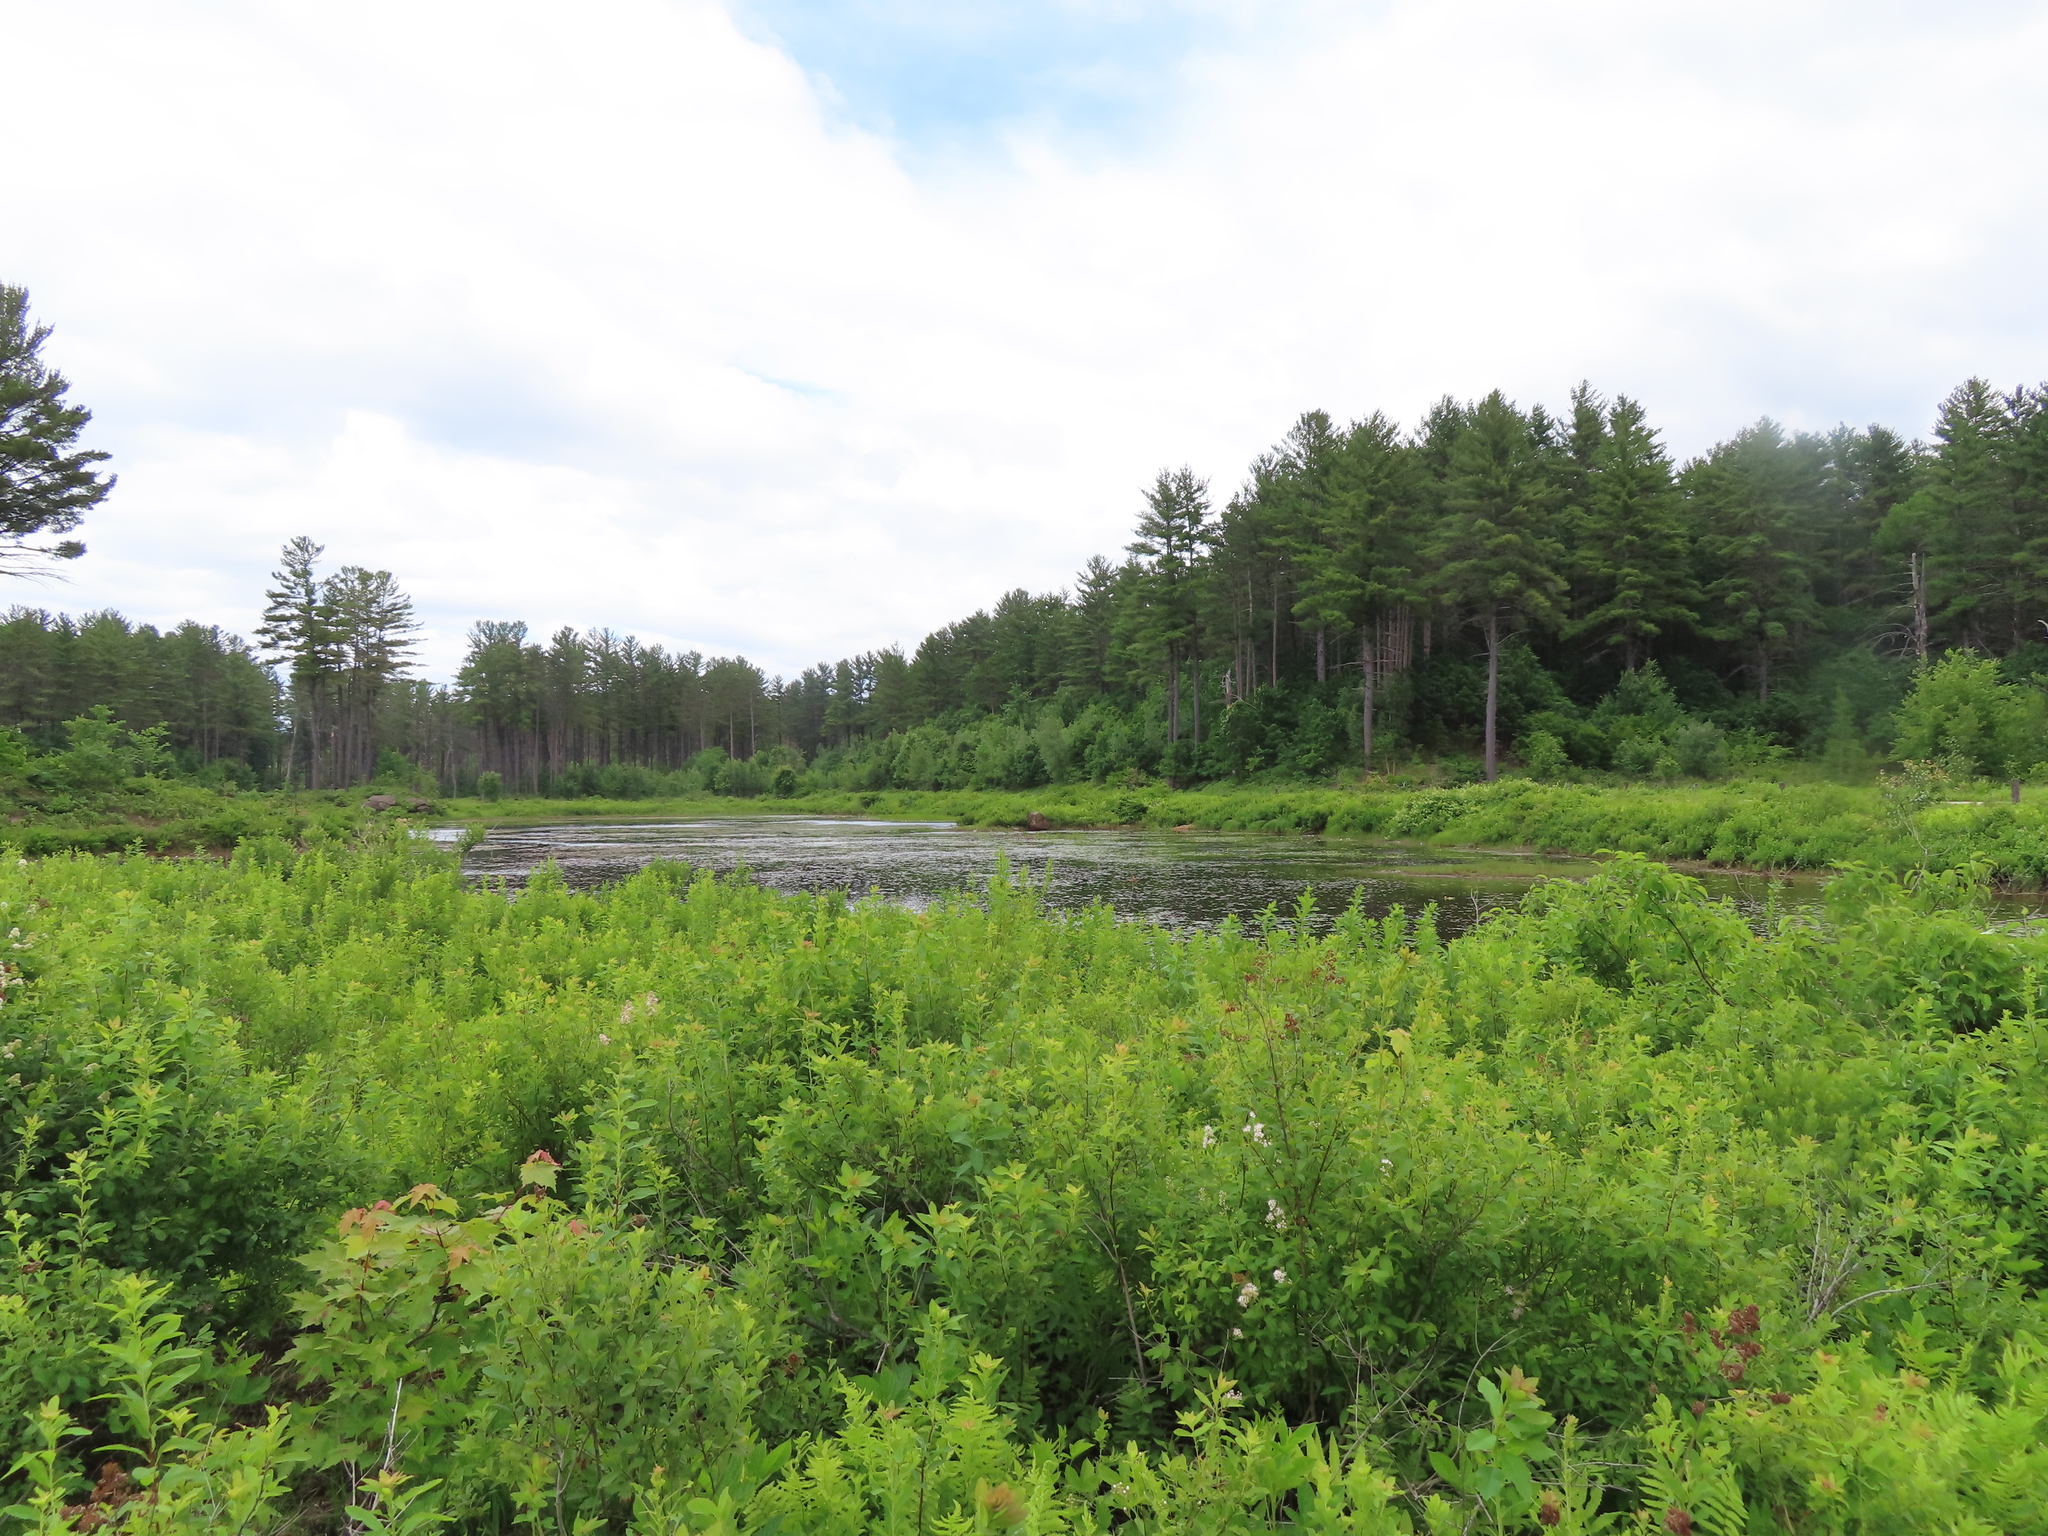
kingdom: Plantae
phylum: Tracheophyta
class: Magnoliopsida
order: Rosales
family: Rosaceae
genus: Spiraea
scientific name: Spiraea alba
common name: Pale bridewort
